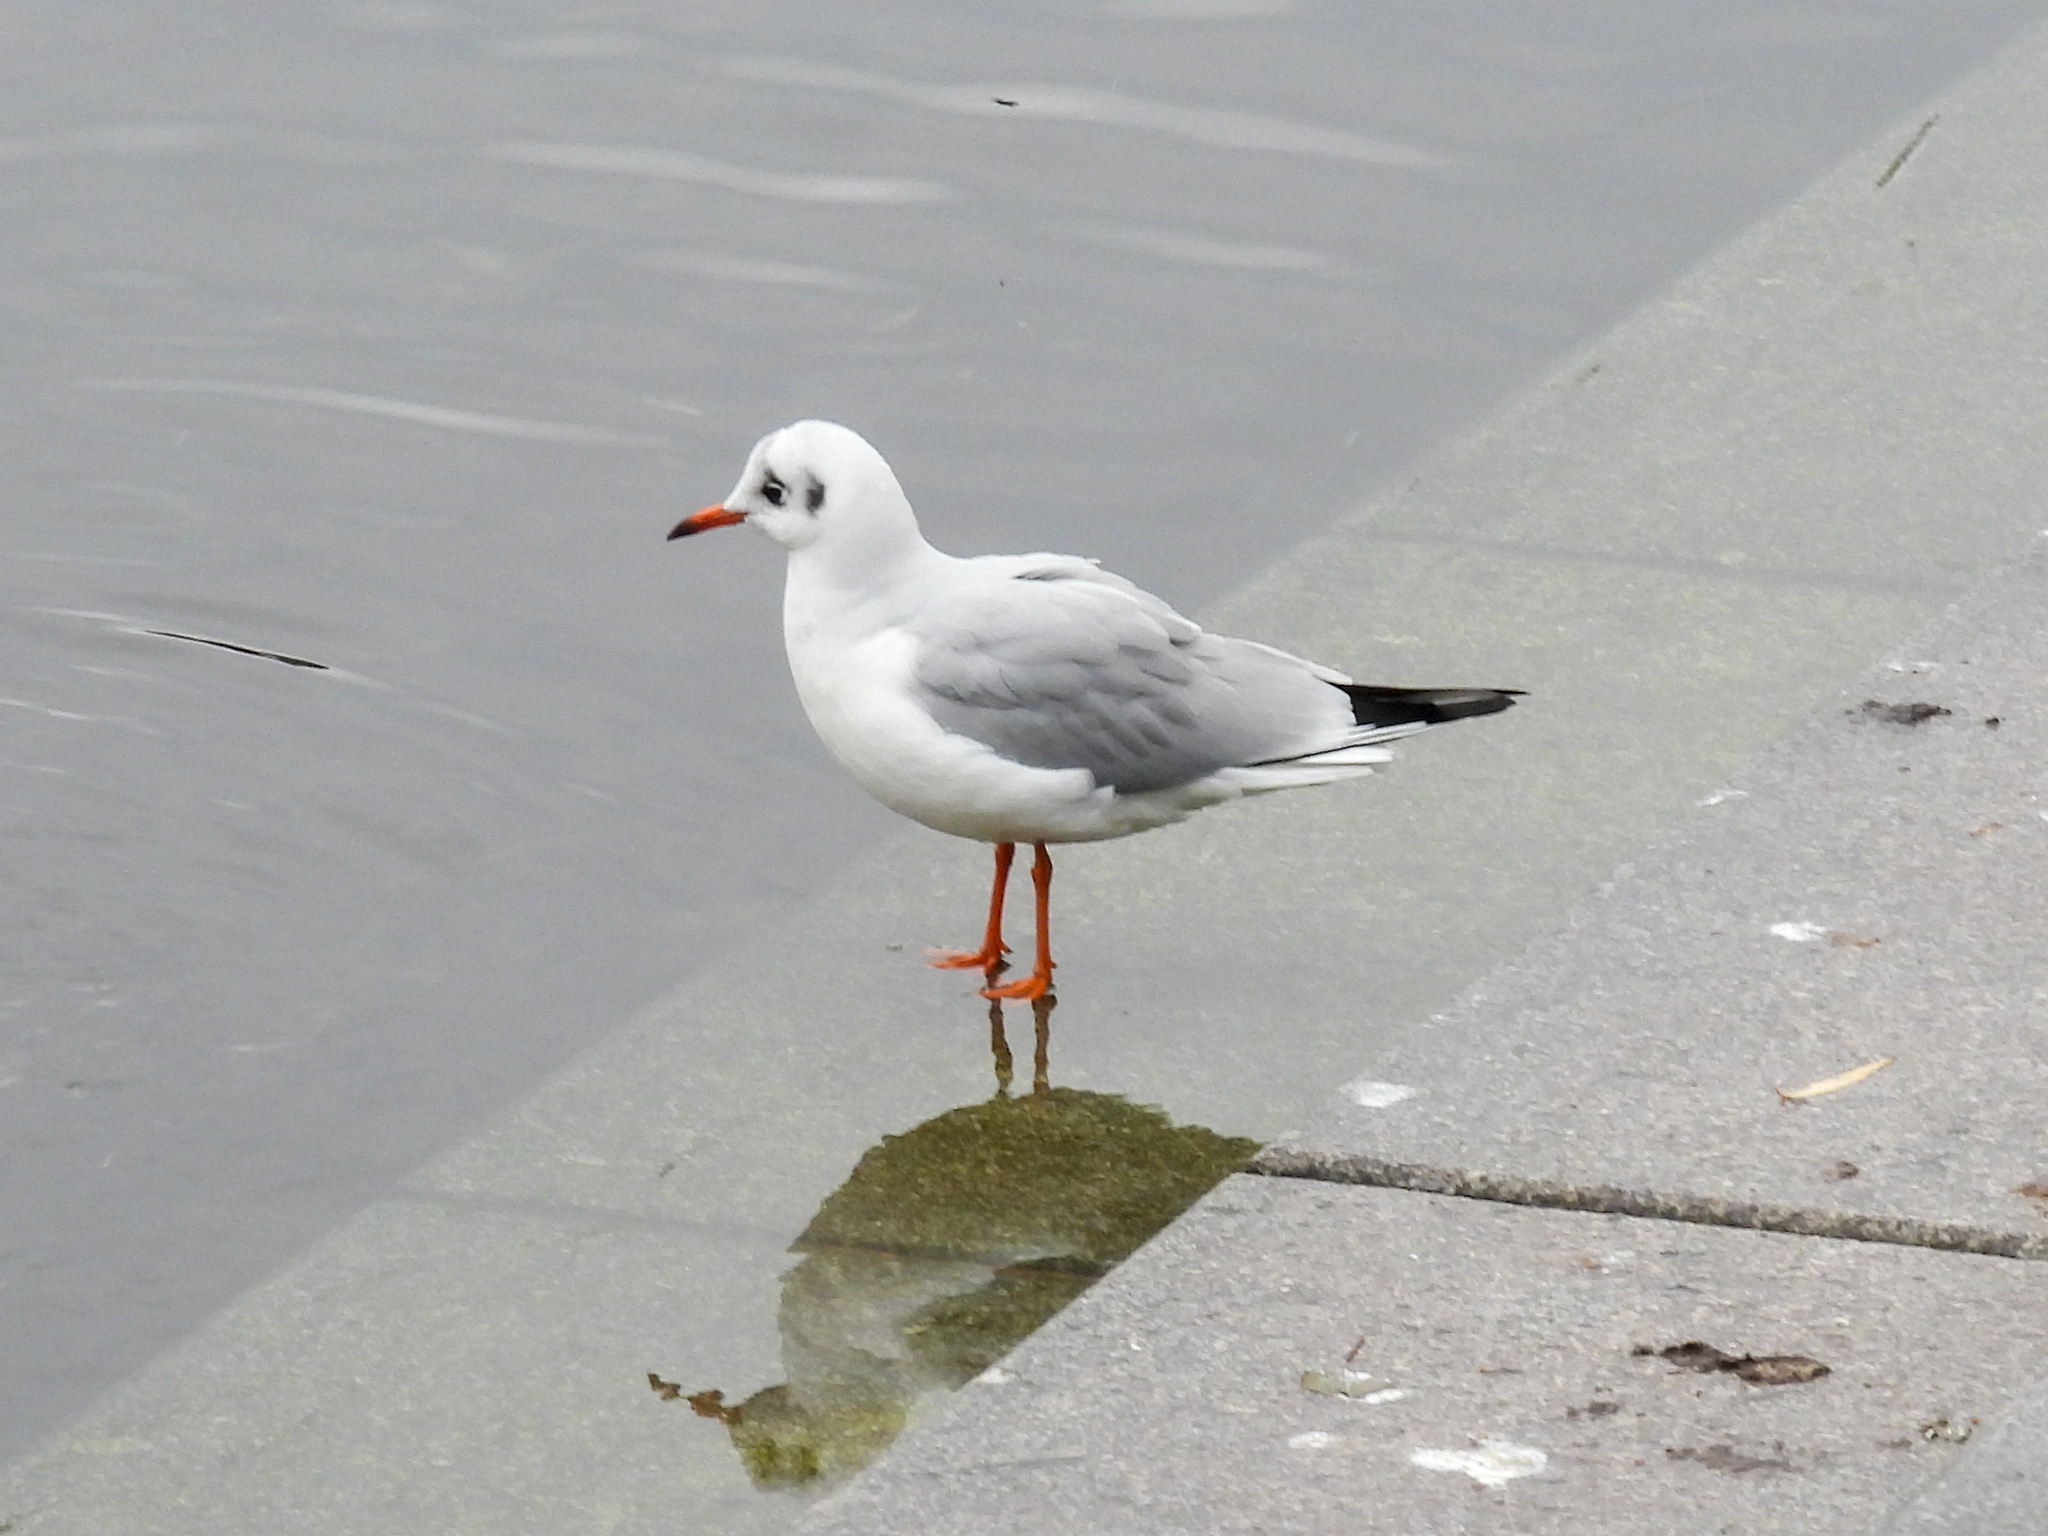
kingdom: Animalia
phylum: Chordata
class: Aves
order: Charadriiformes
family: Laridae
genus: Chroicocephalus
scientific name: Chroicocephalus ridibundus
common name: Black-headed gull
